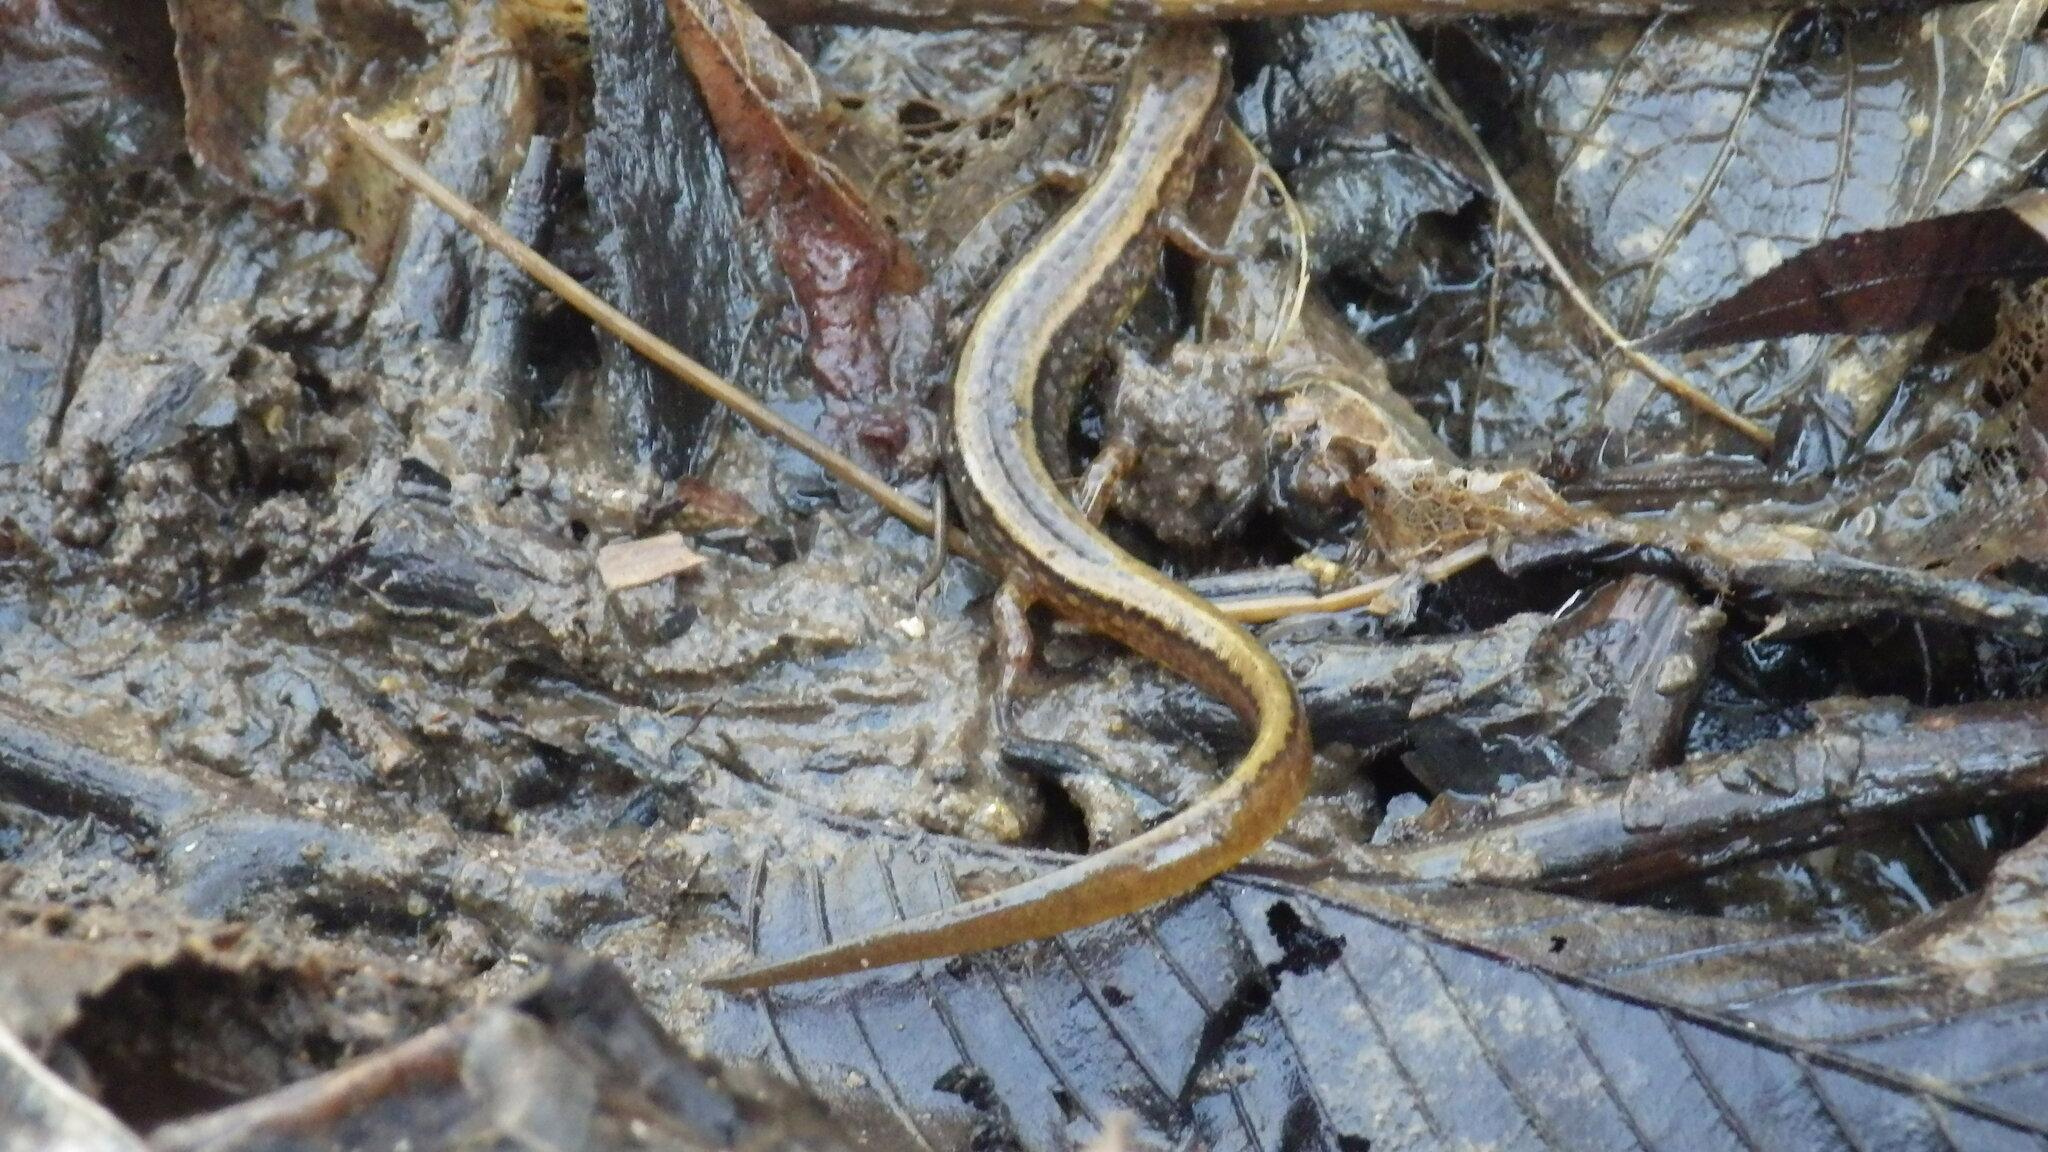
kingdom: Animalia
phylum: Chordata
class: Amphibia
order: Caudata
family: Plethodontidae
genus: Eurycea
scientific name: Eurycea cirrigera
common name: Southern two-lined salamander
